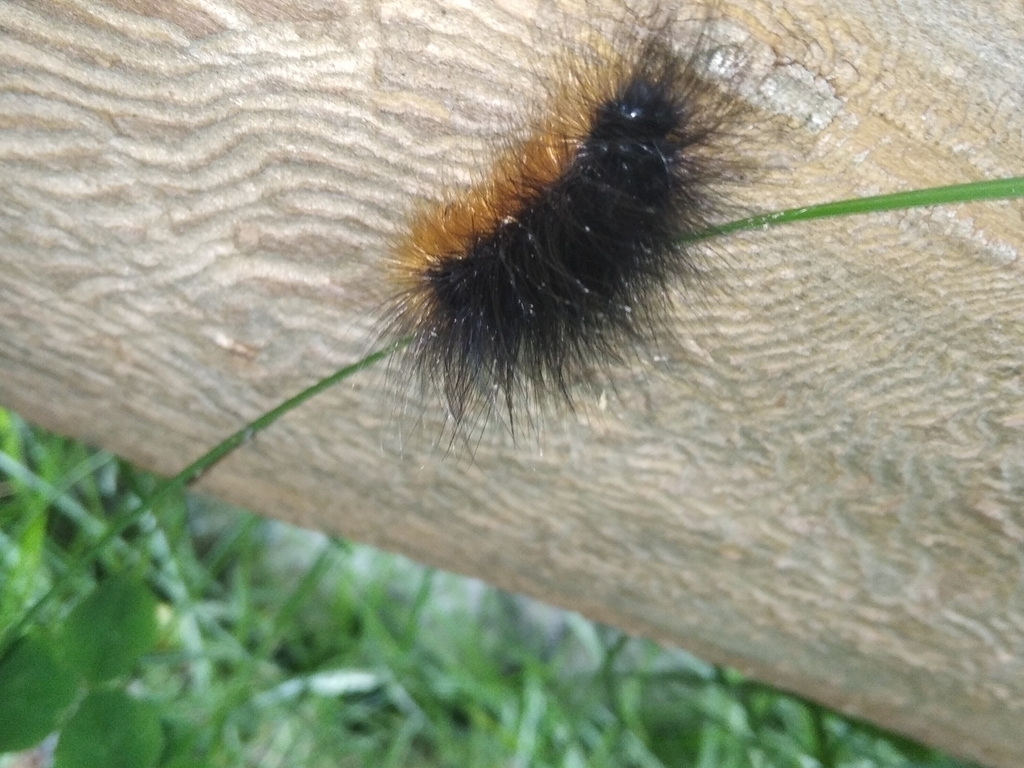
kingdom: Animalia
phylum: Arthropoda
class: Insecta
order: Lepidoptera
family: Erebidae
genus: Arctia
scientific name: Arctia caja
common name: Garden tiger
